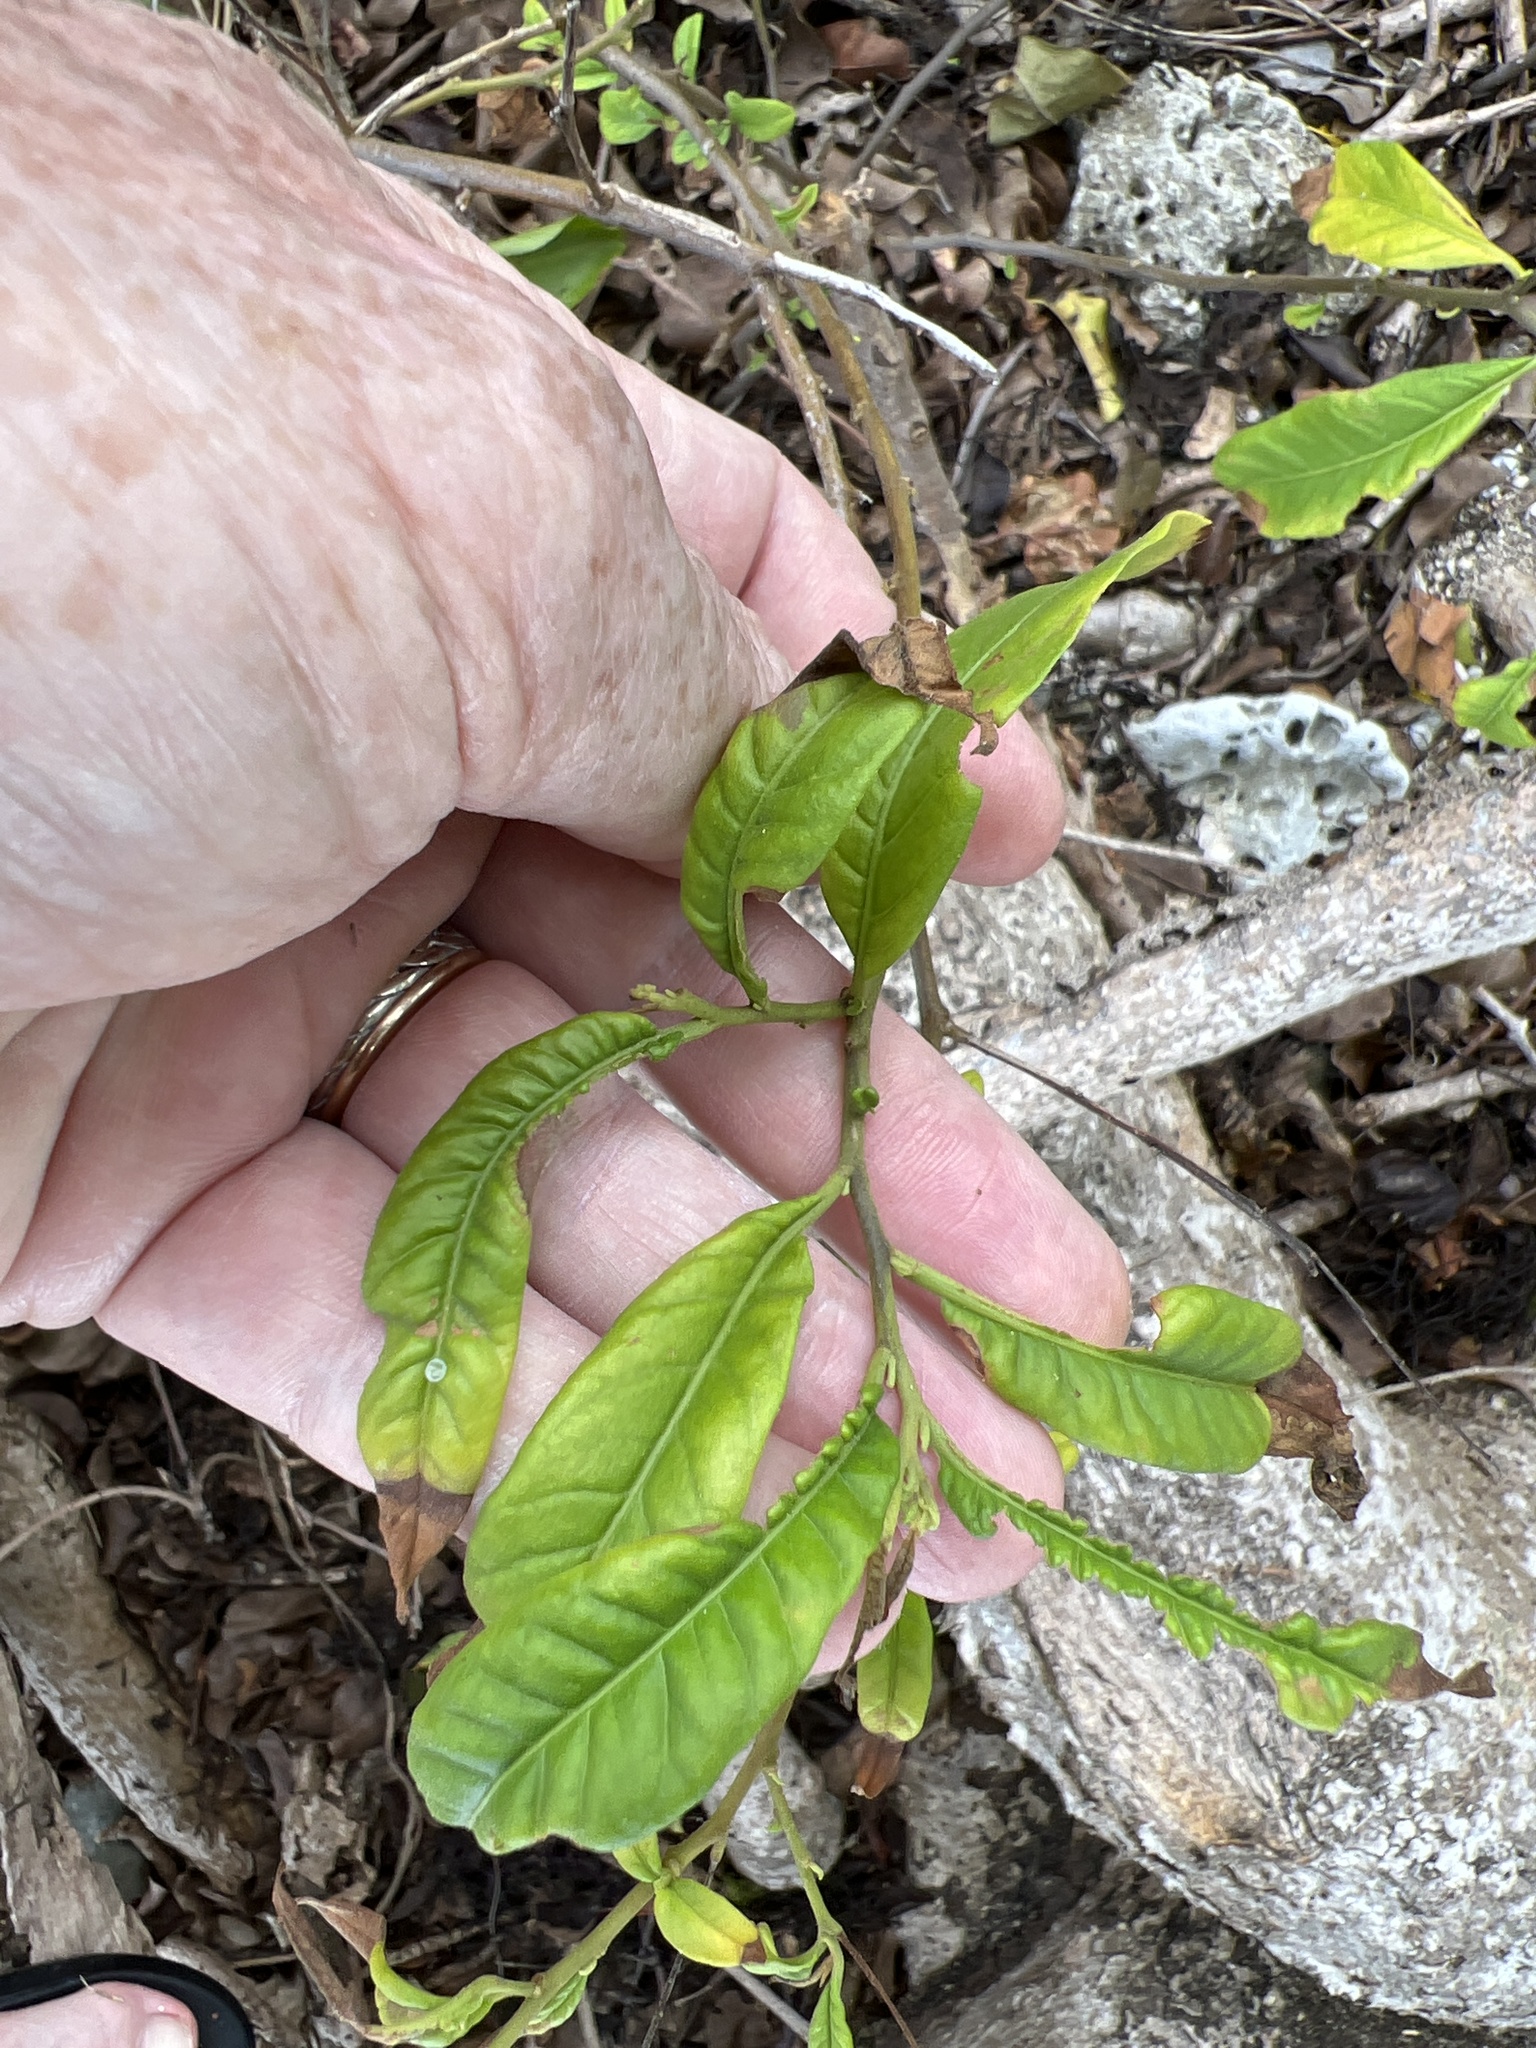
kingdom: Plantae
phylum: Tracheophyta
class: Magnoliopsida
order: Solanales
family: Solanaceae
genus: Solanum
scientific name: Solanum bahamense
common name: Canker-berry
